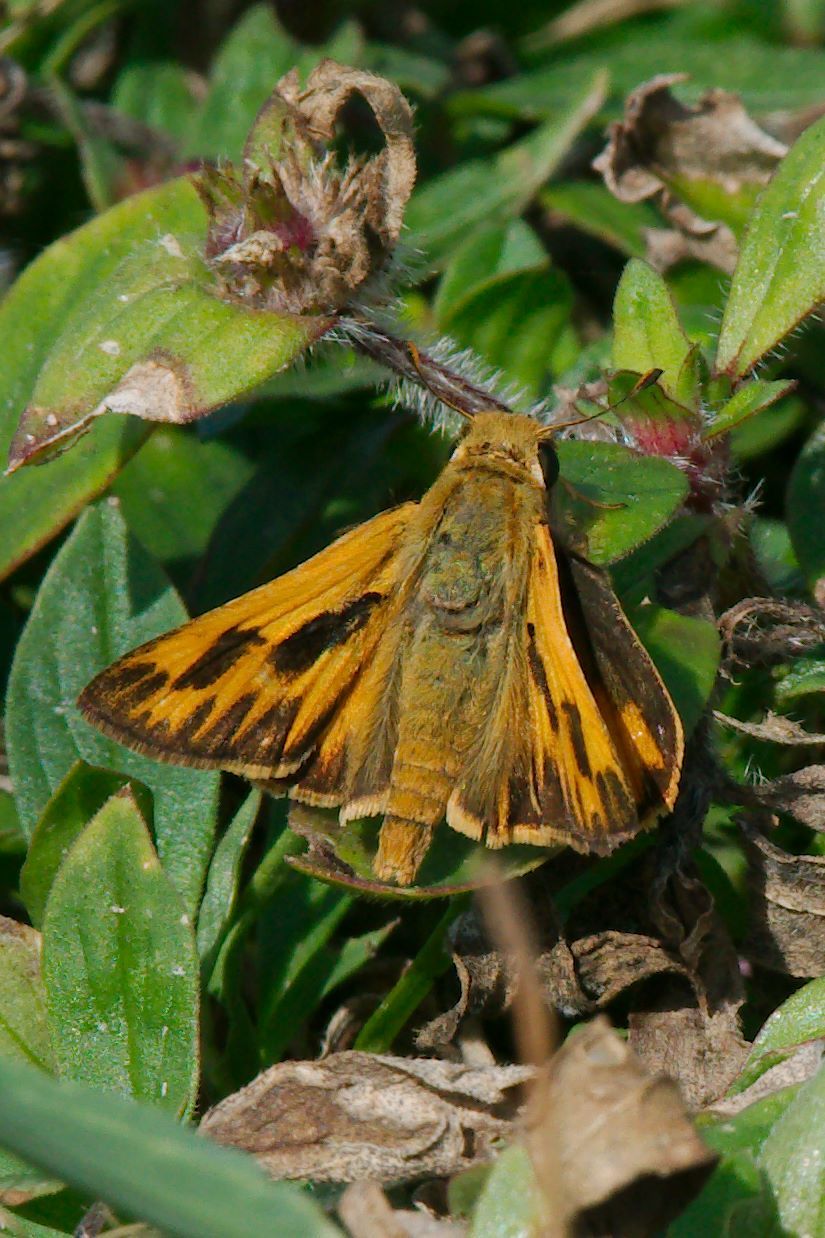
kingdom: Animalia
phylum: Arthropoda
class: Insecta
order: Lepidoptera
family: Hesperiidae
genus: Hylephila
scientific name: Hylephila phyleus
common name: Fiery skipper
